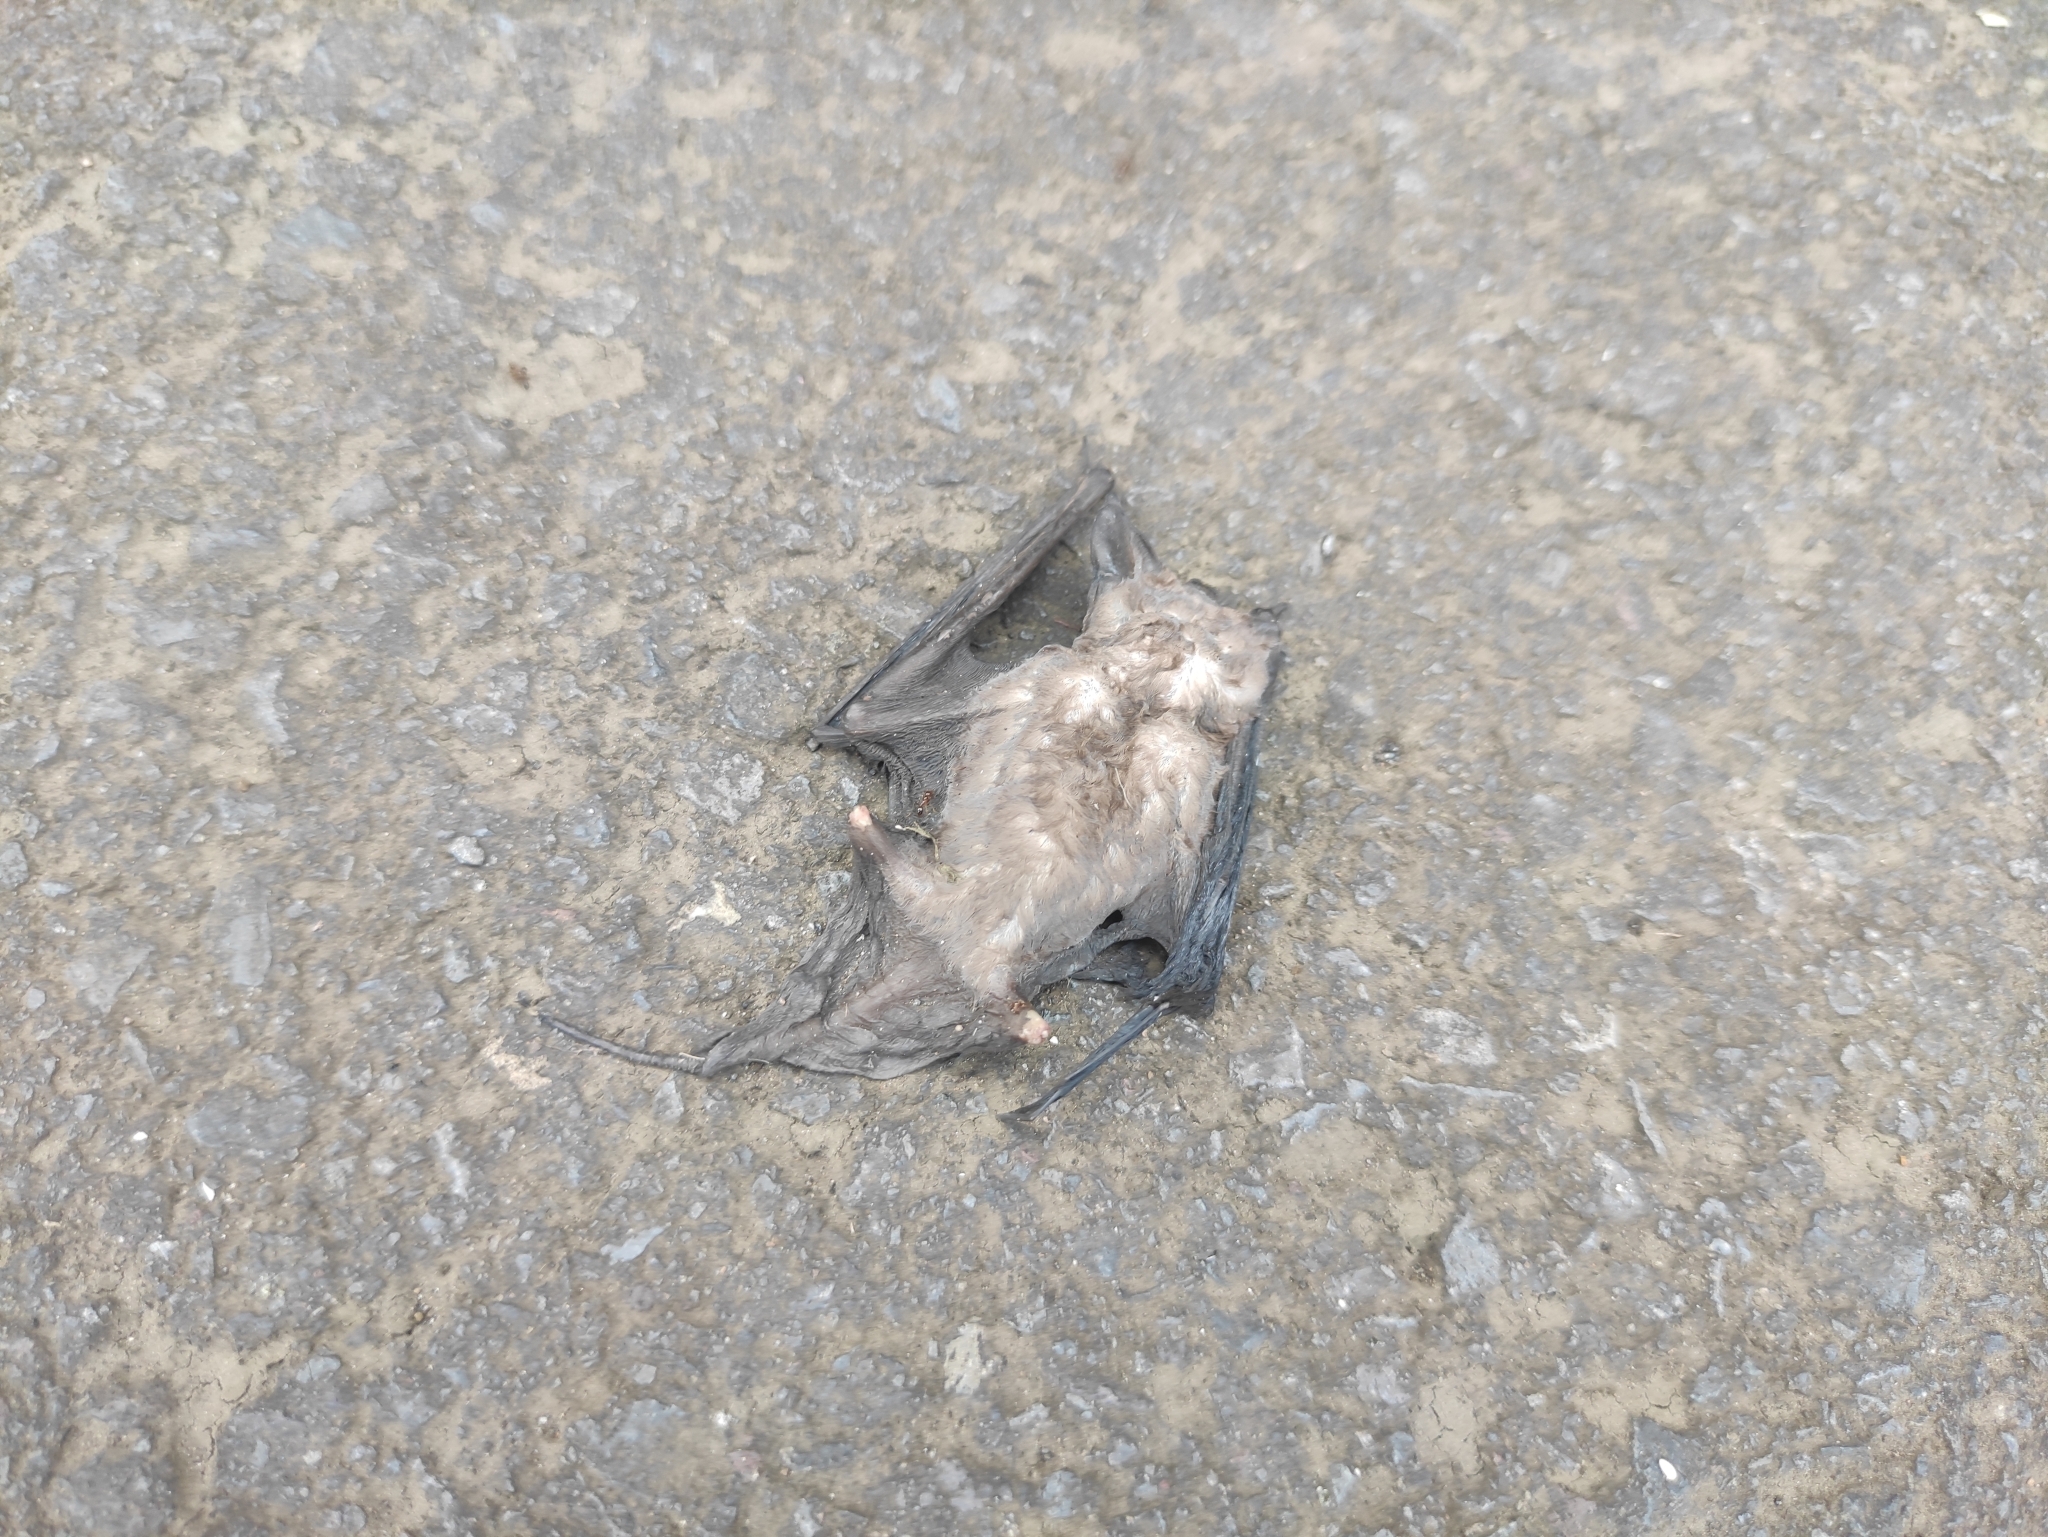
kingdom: Animalia
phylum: Chordata
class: Mammalia
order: Chiroptera
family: Molossidae
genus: Mormopterus
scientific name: Mormopterus francoismoutoui
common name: Moutou's free-tailed bat
